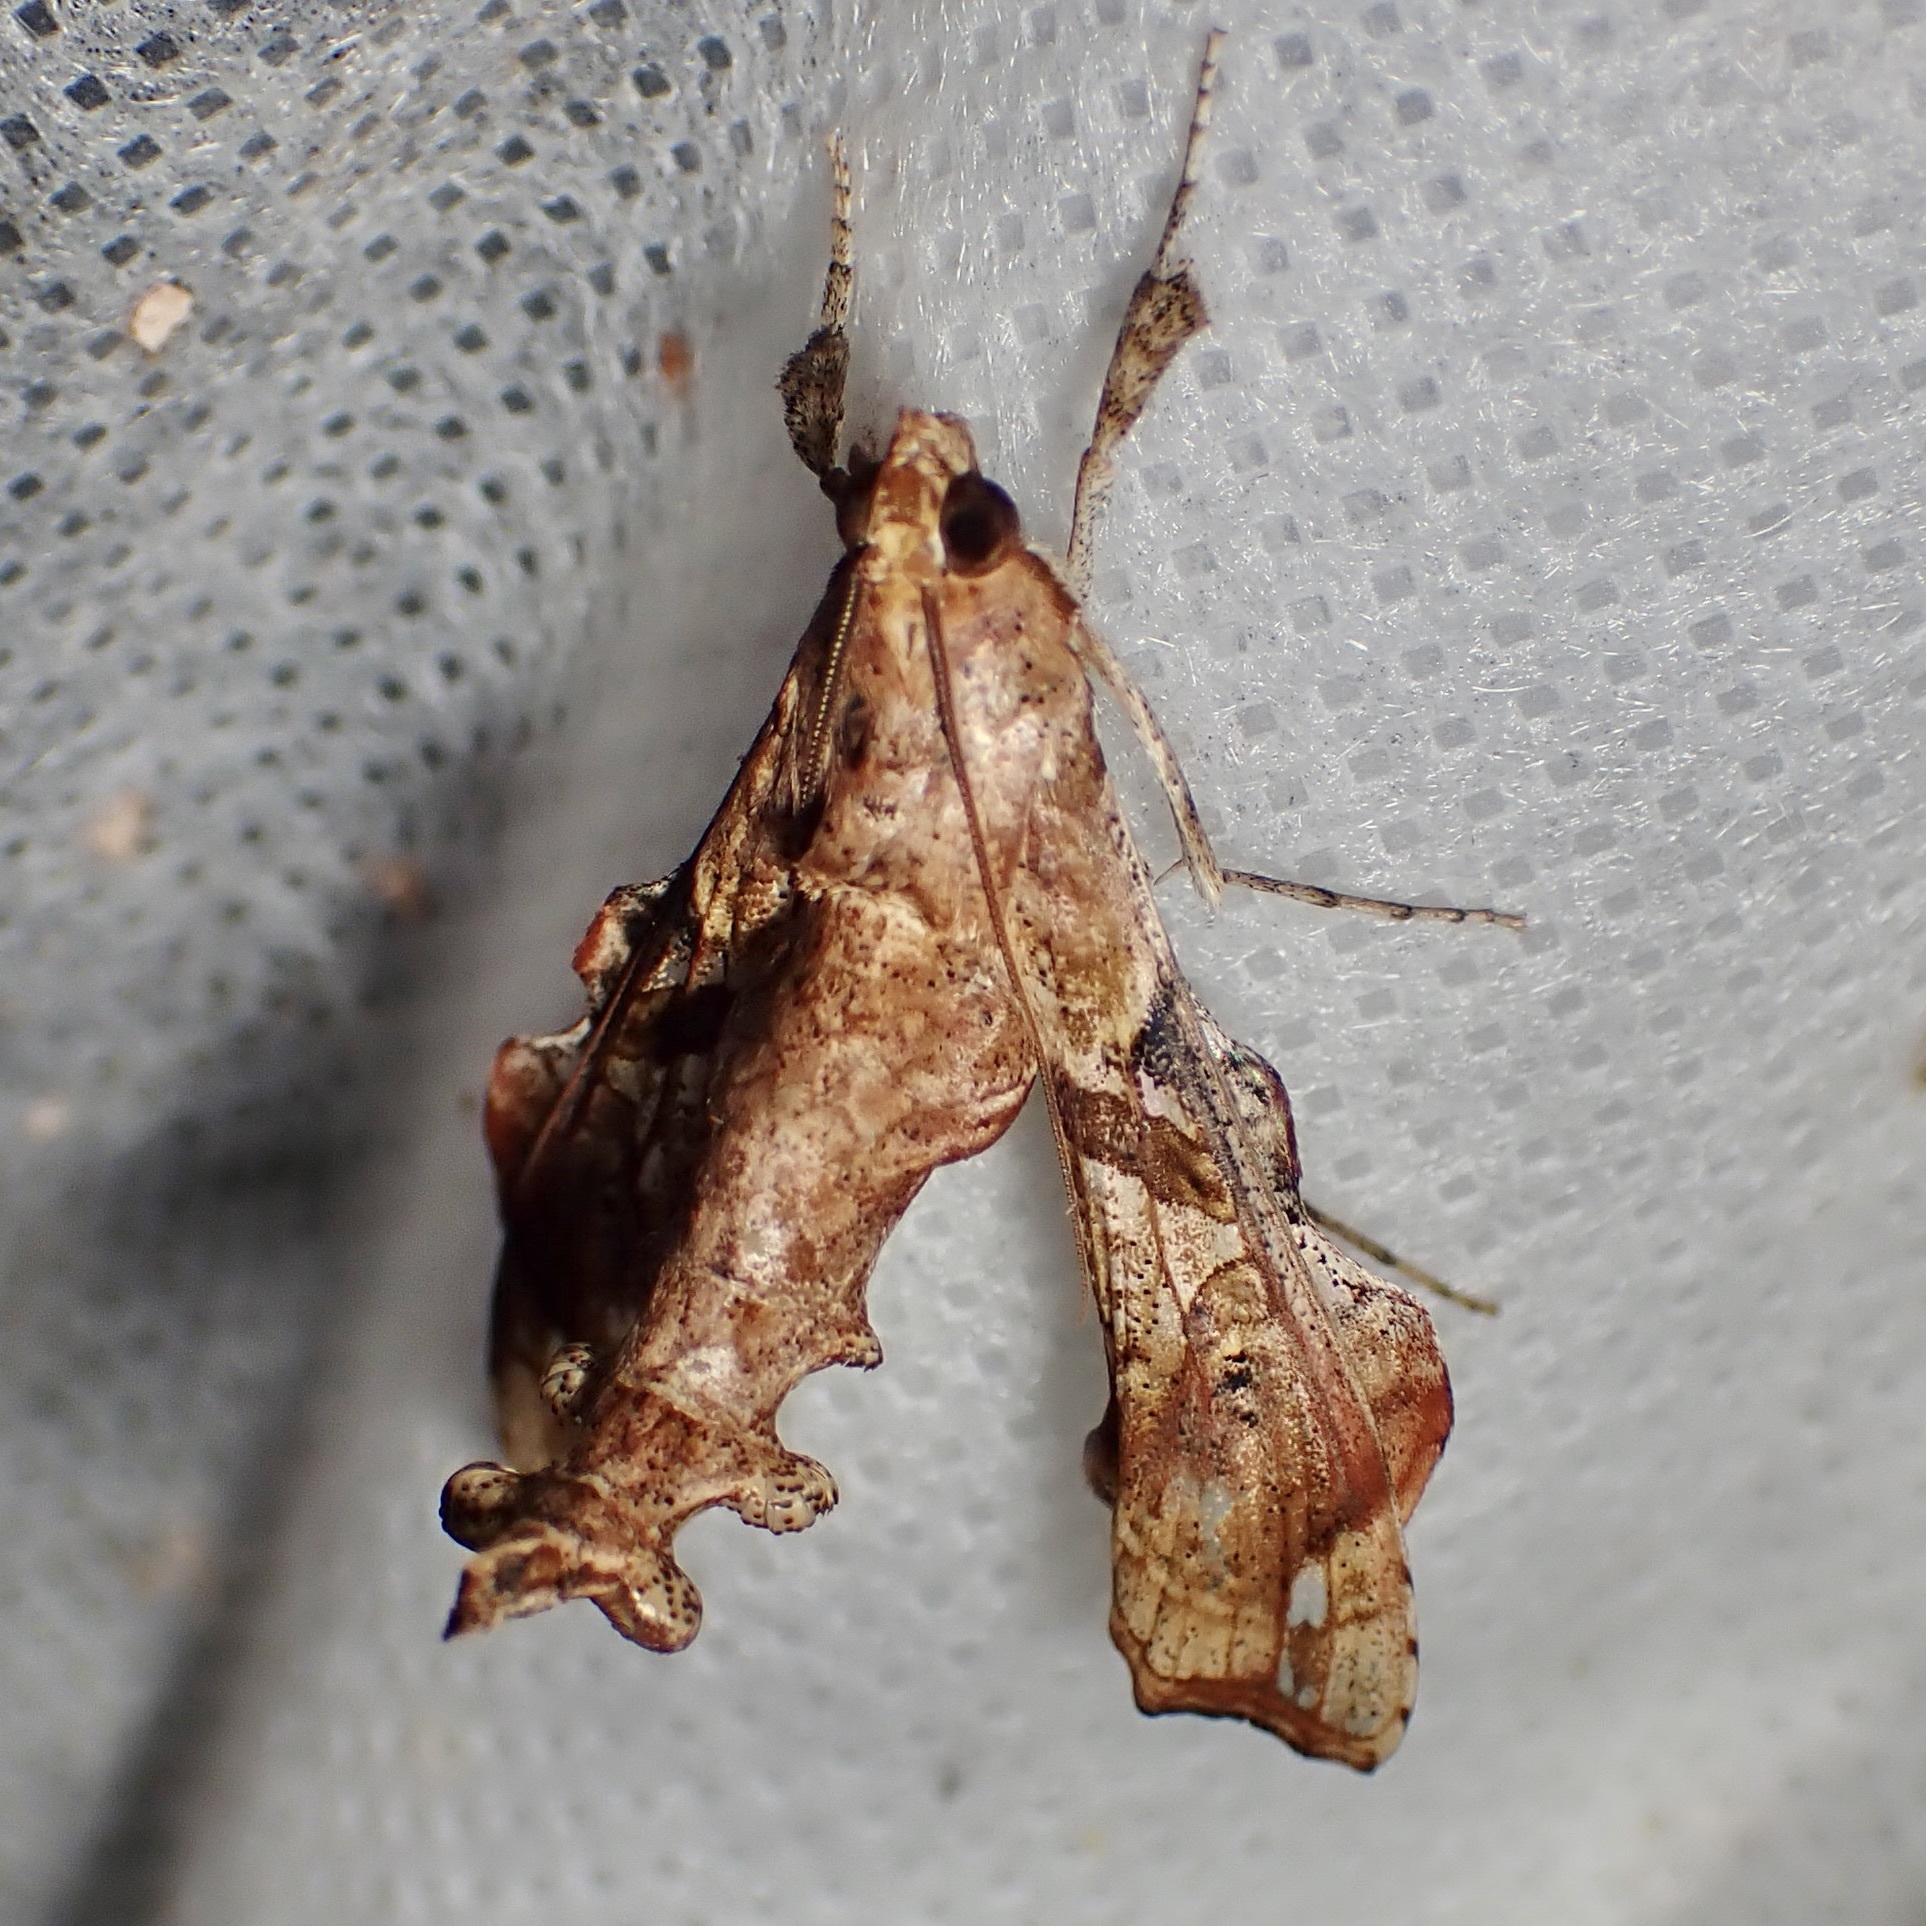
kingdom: Animalia
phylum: Arthropoda
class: Insecta
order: Lepidoptera
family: Crambidae
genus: Terastia
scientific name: Terastia meticulosalis
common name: Moth
